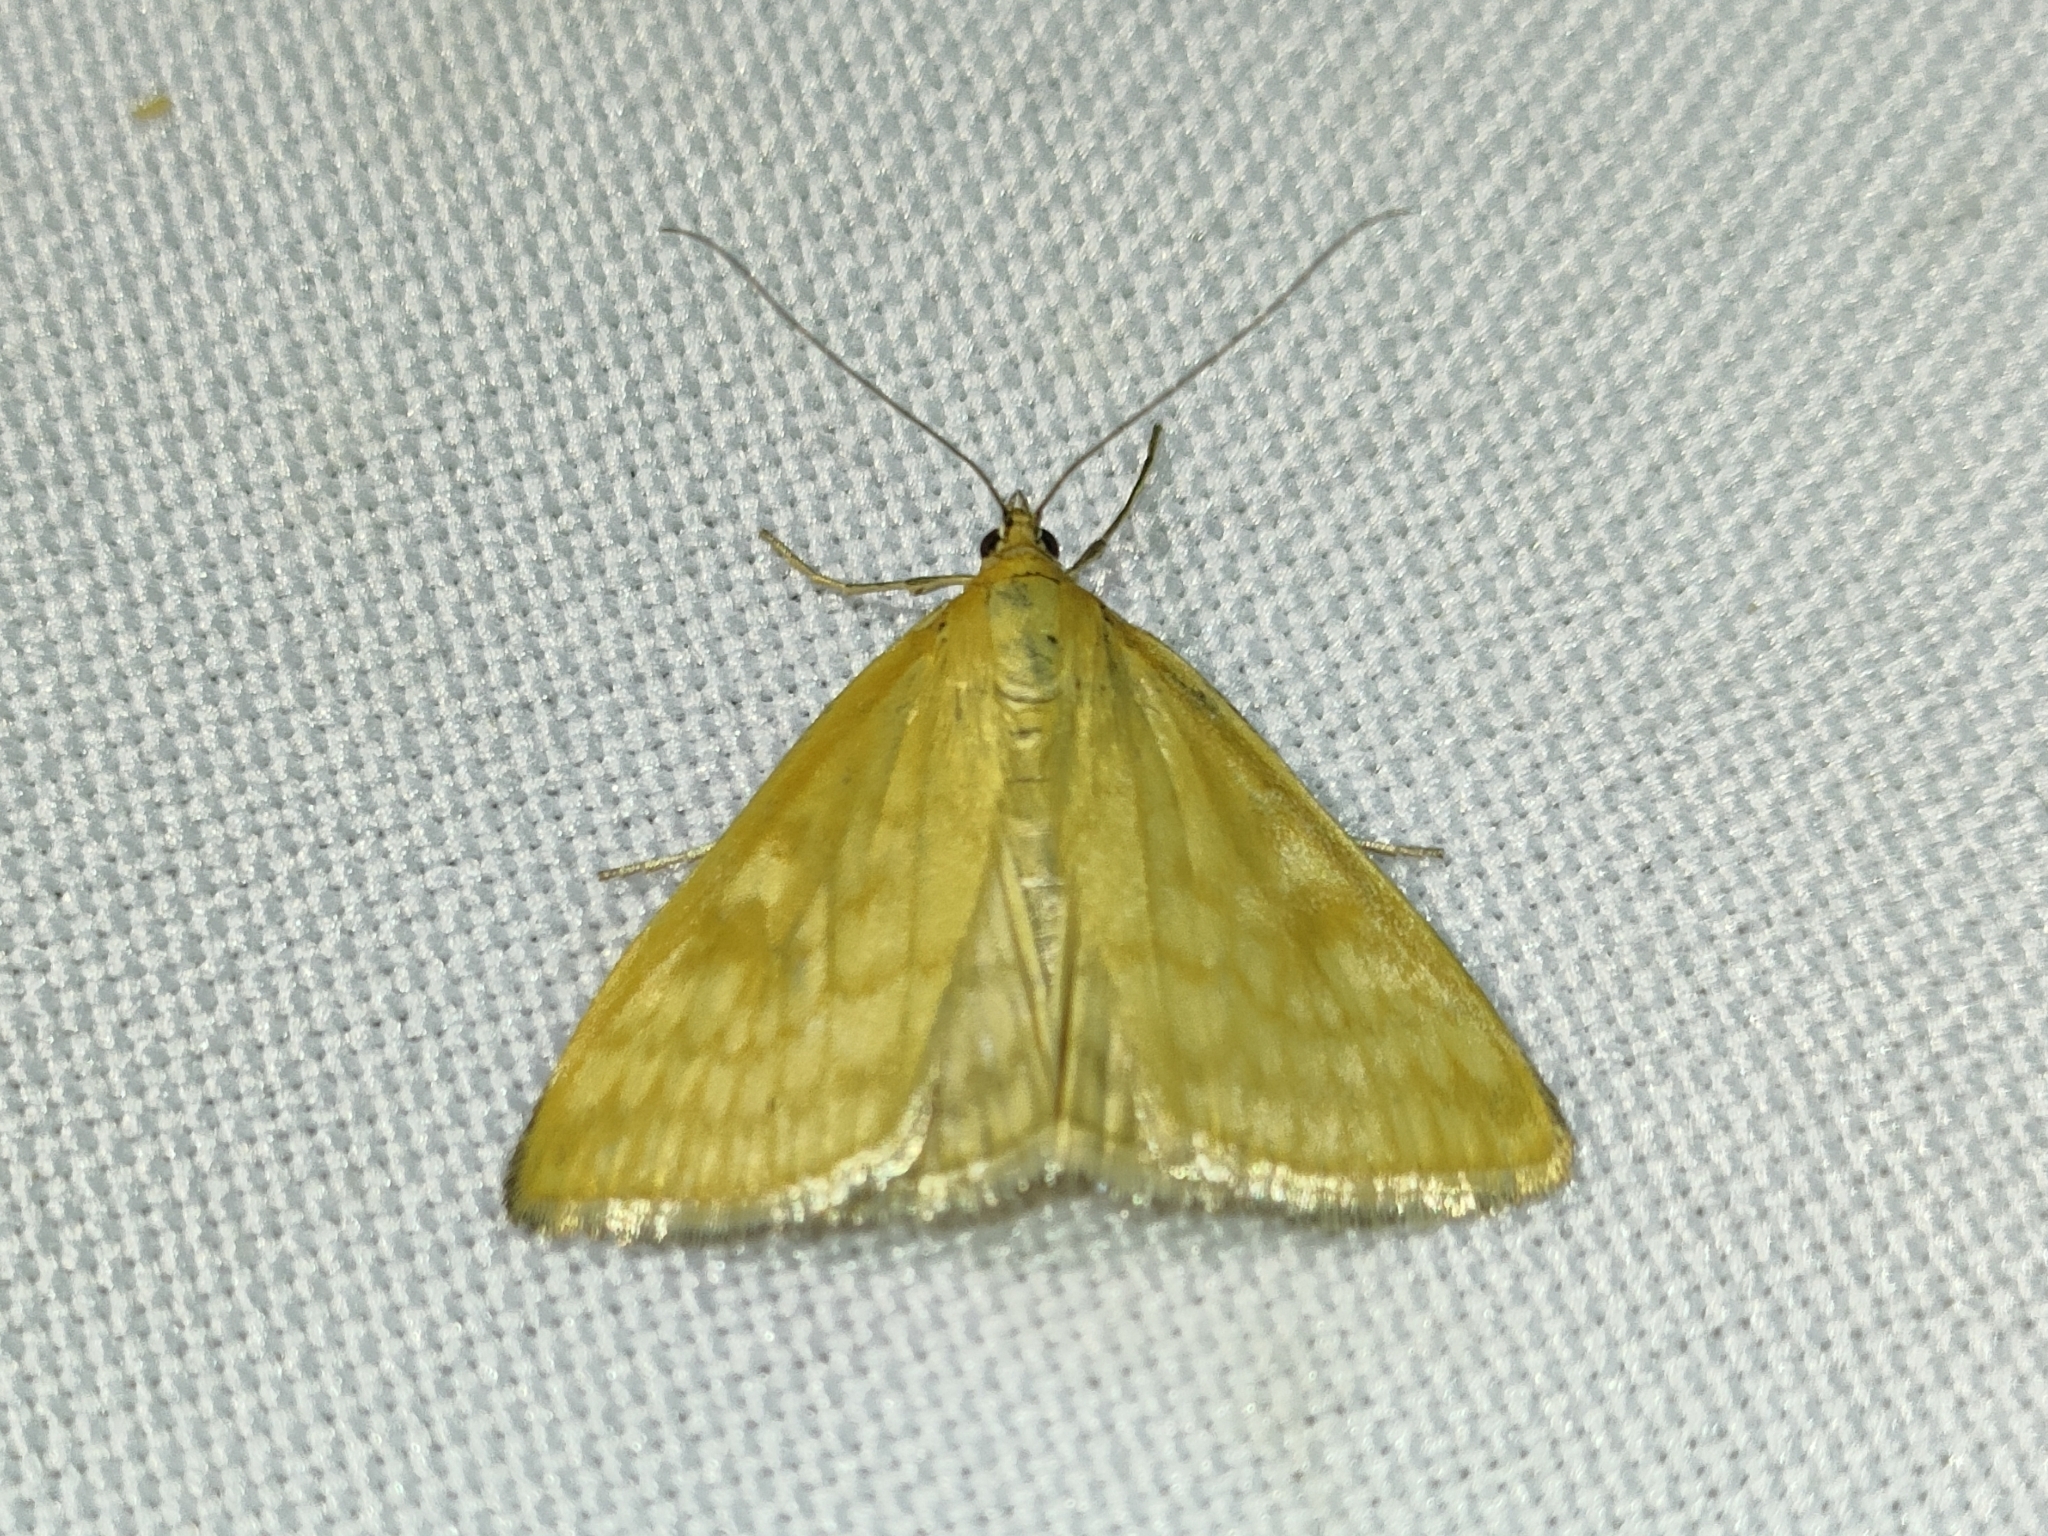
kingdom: Animalia
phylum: Arthropoda
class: Insecta
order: Lepidoptera
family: Crambidae
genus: Sitochroa
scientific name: Sitochroa verticalis
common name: Lesser pearl
